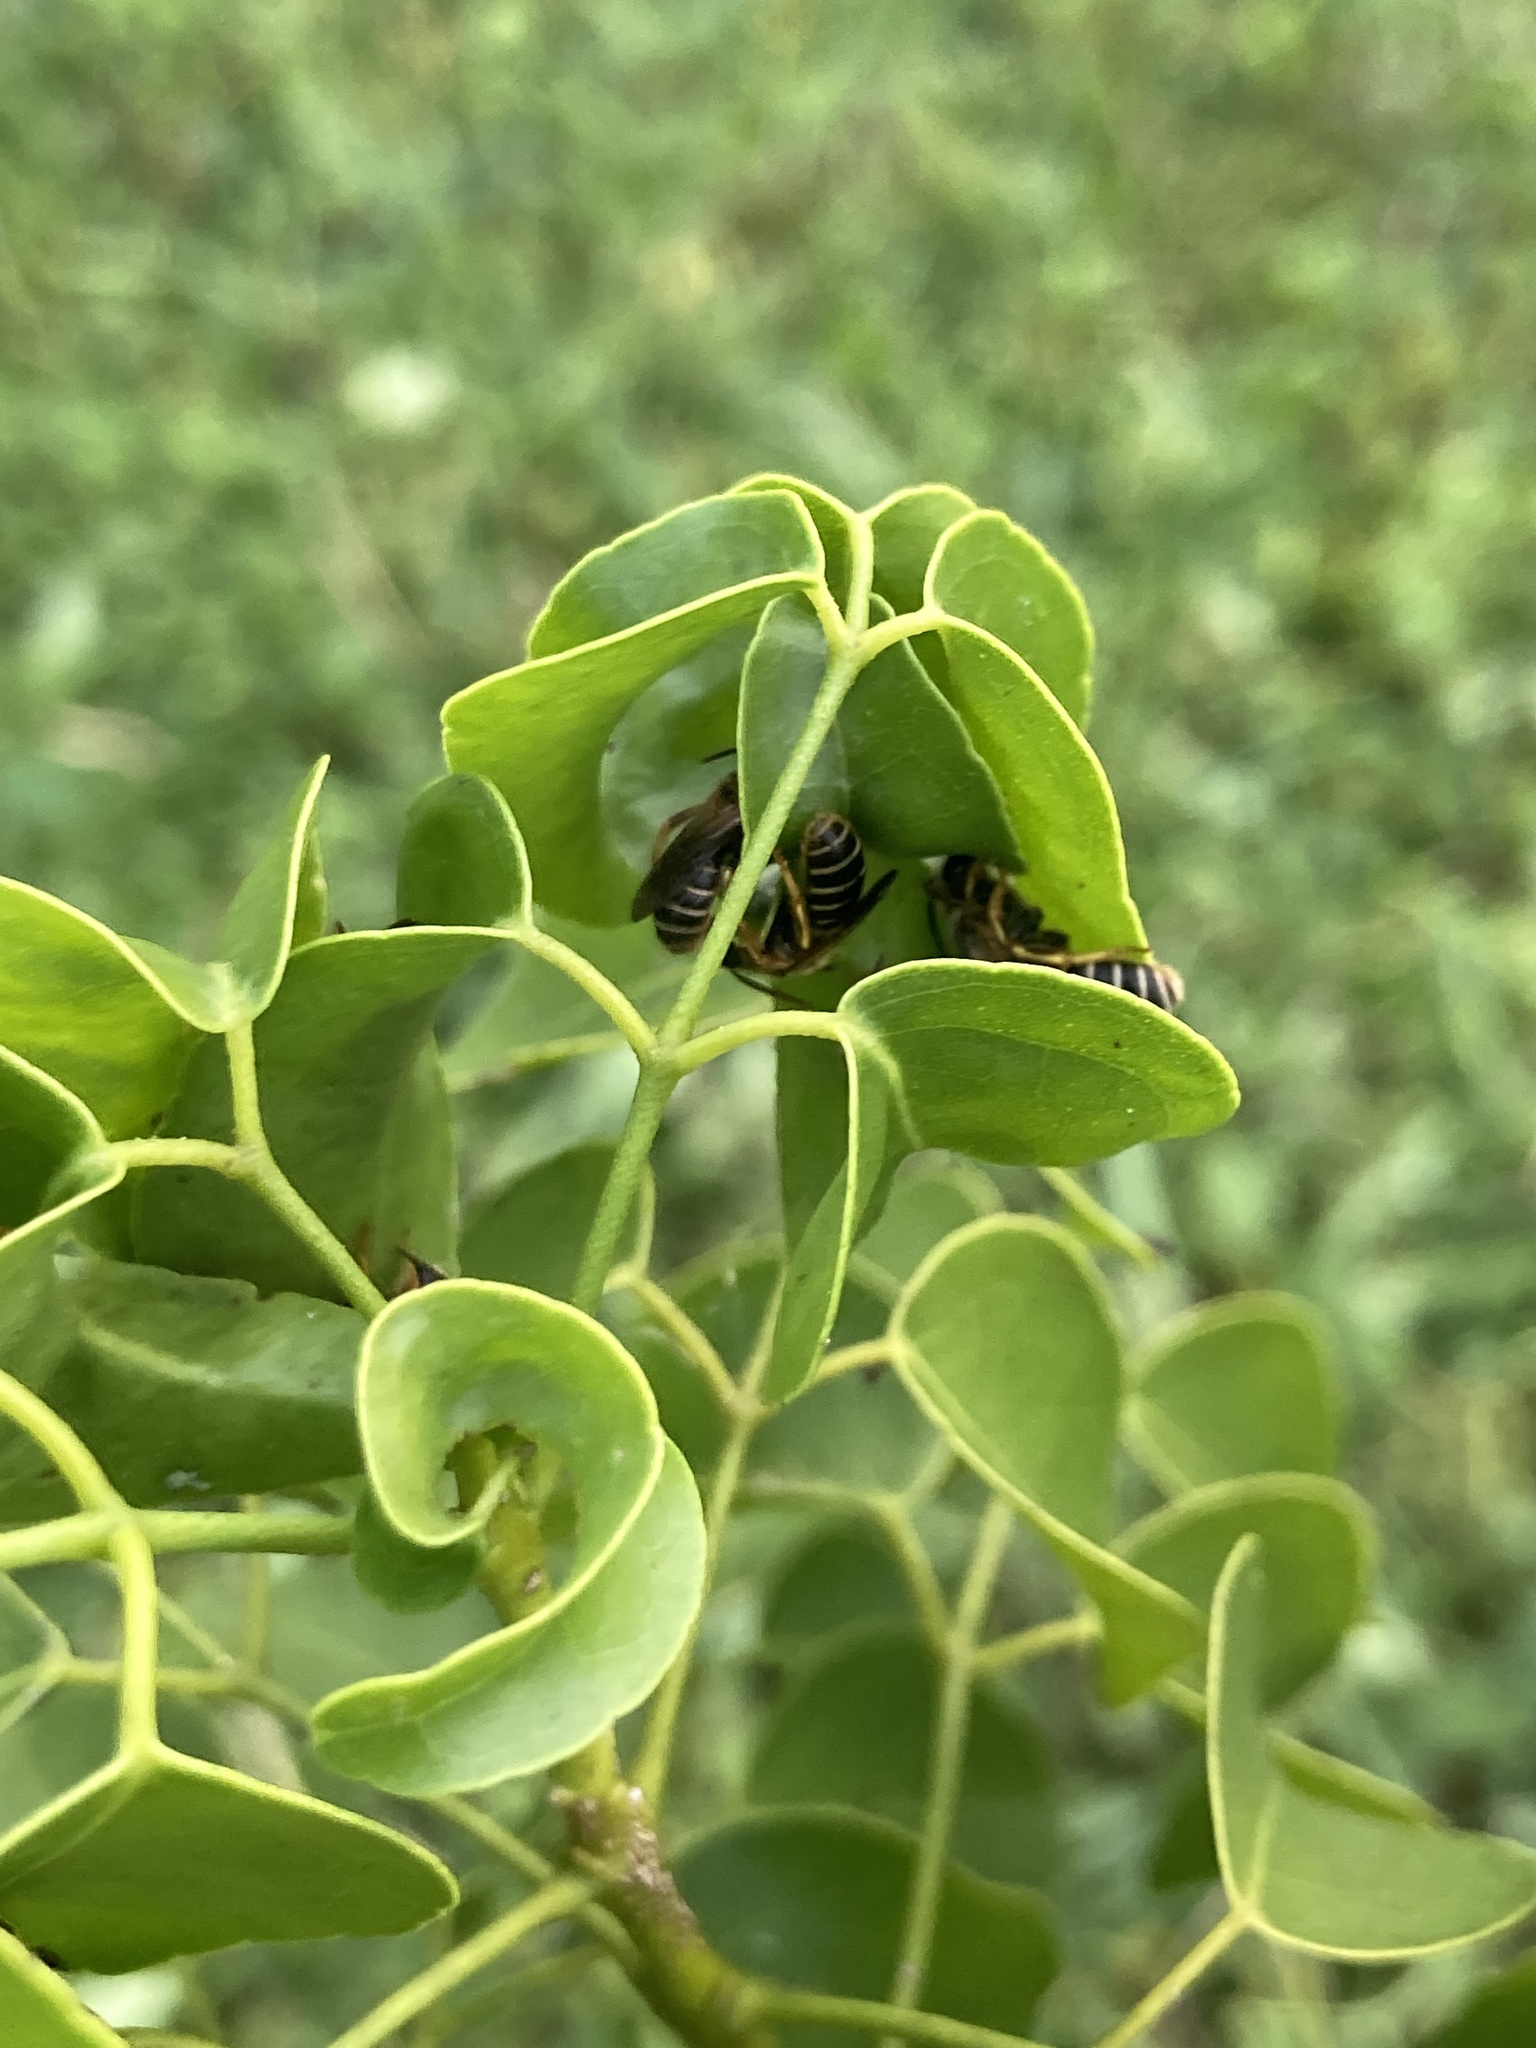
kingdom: Animalia
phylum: Arthropoda
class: Insecta
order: Hymenoptera
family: Halictidae
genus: Halictus
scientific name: Halictus poeyi
